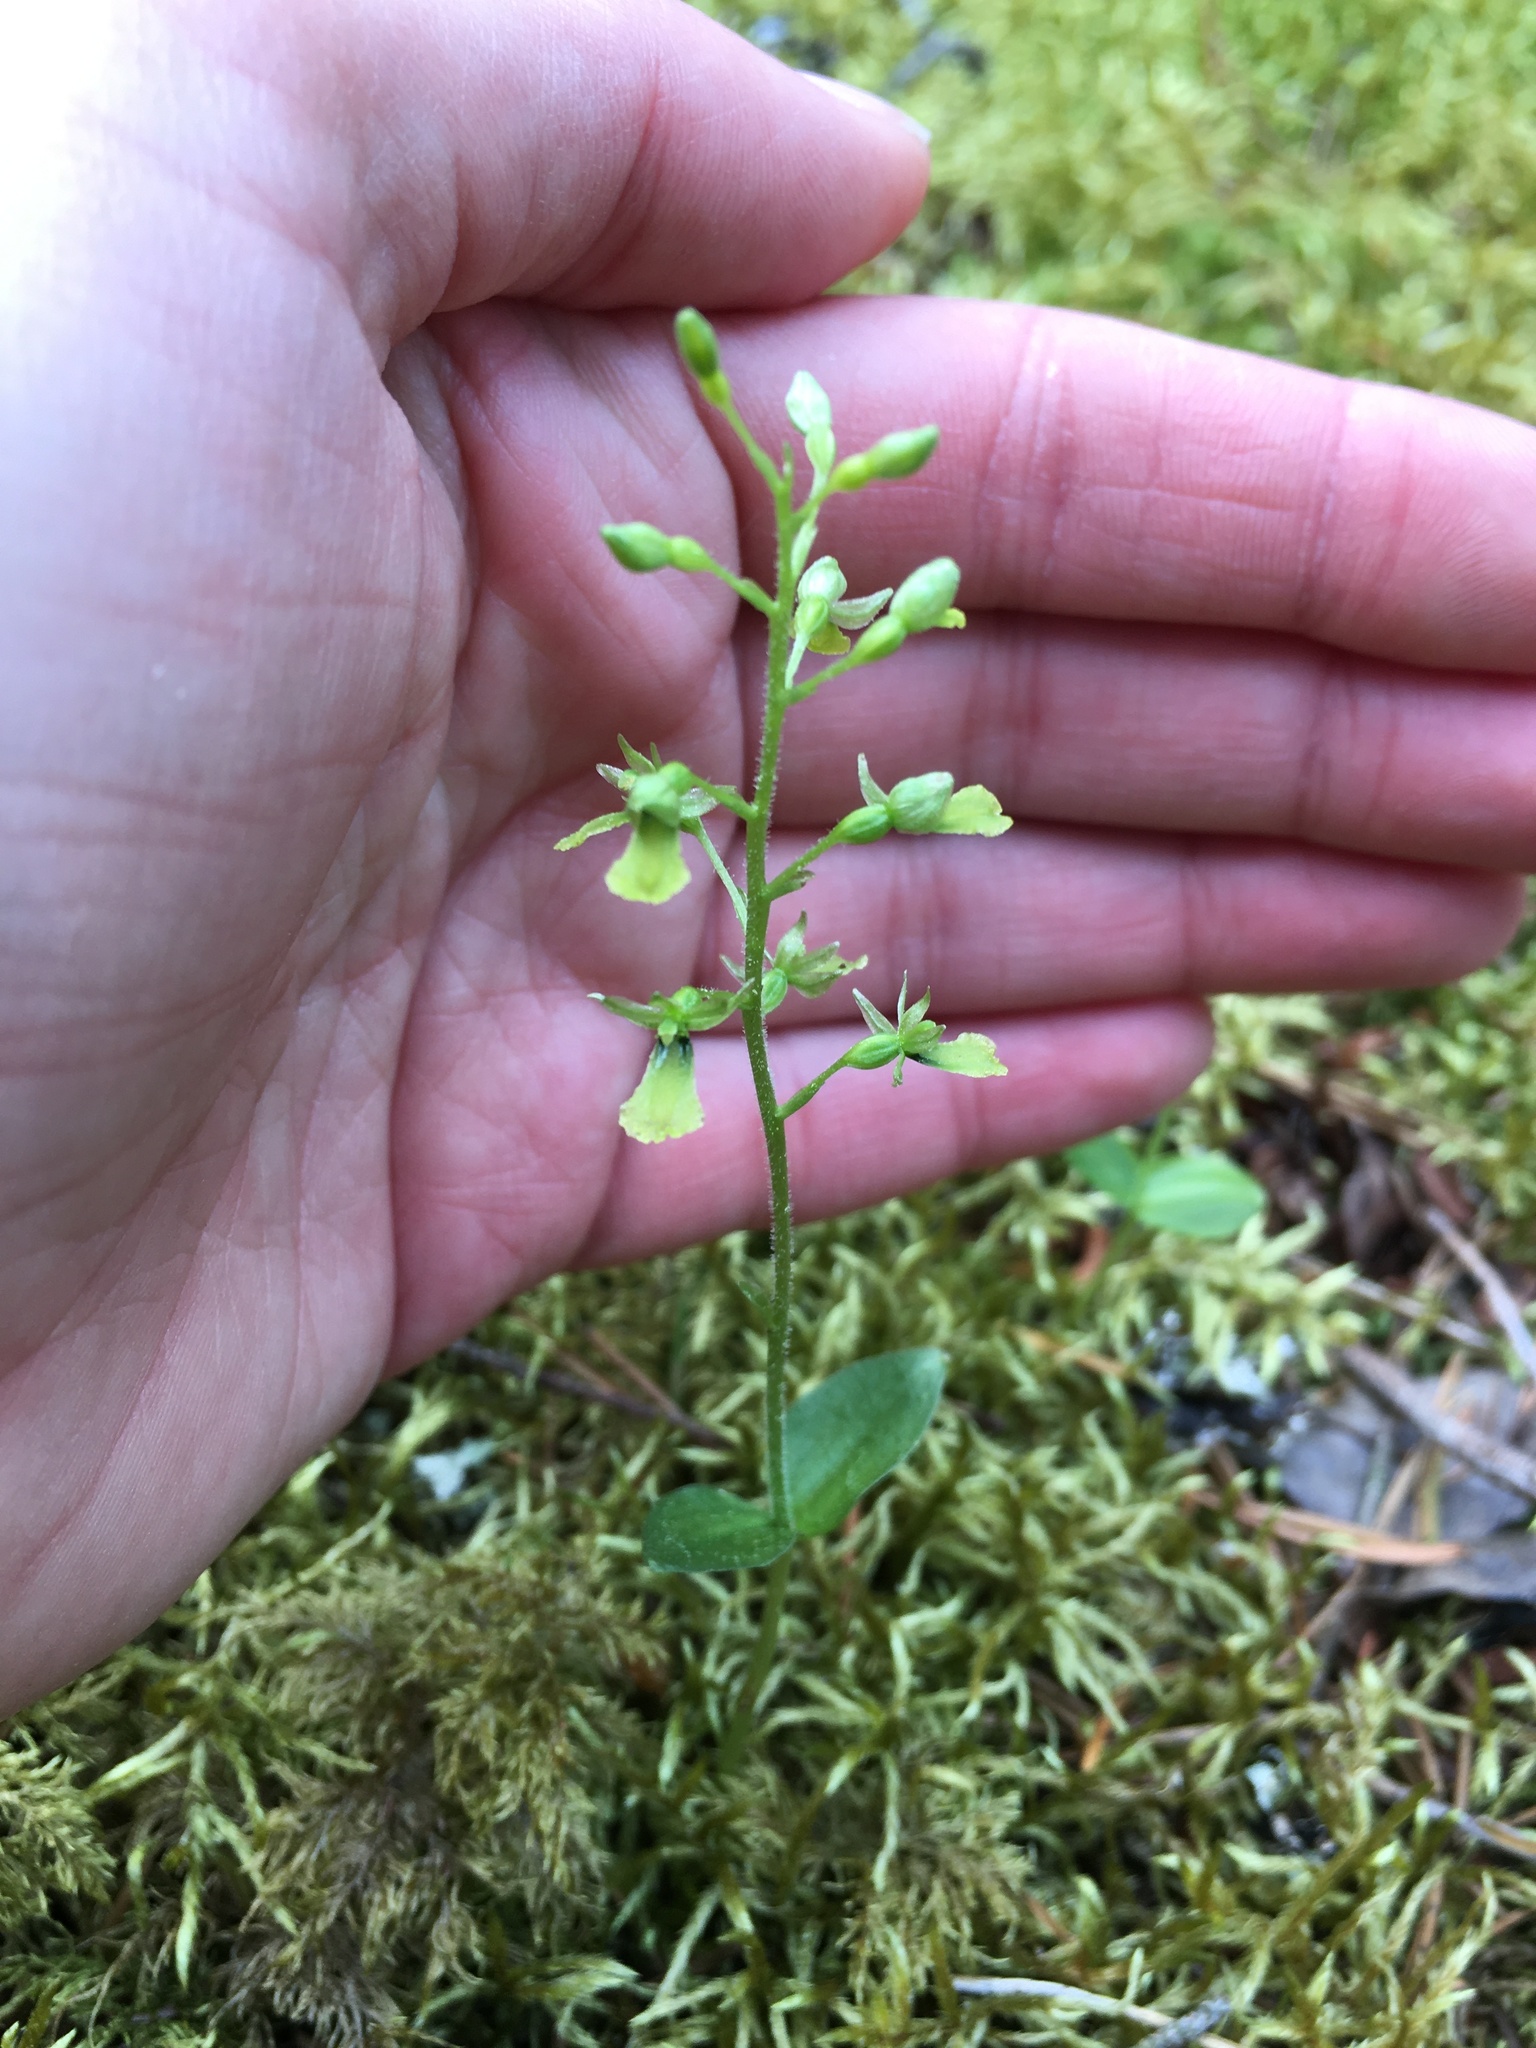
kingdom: Plantae
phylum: Tracheophyta
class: Liliopsida
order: Asparagales
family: Orchidaceae
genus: Neottia
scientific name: Neottia banksiana
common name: Northwestern twayblade
